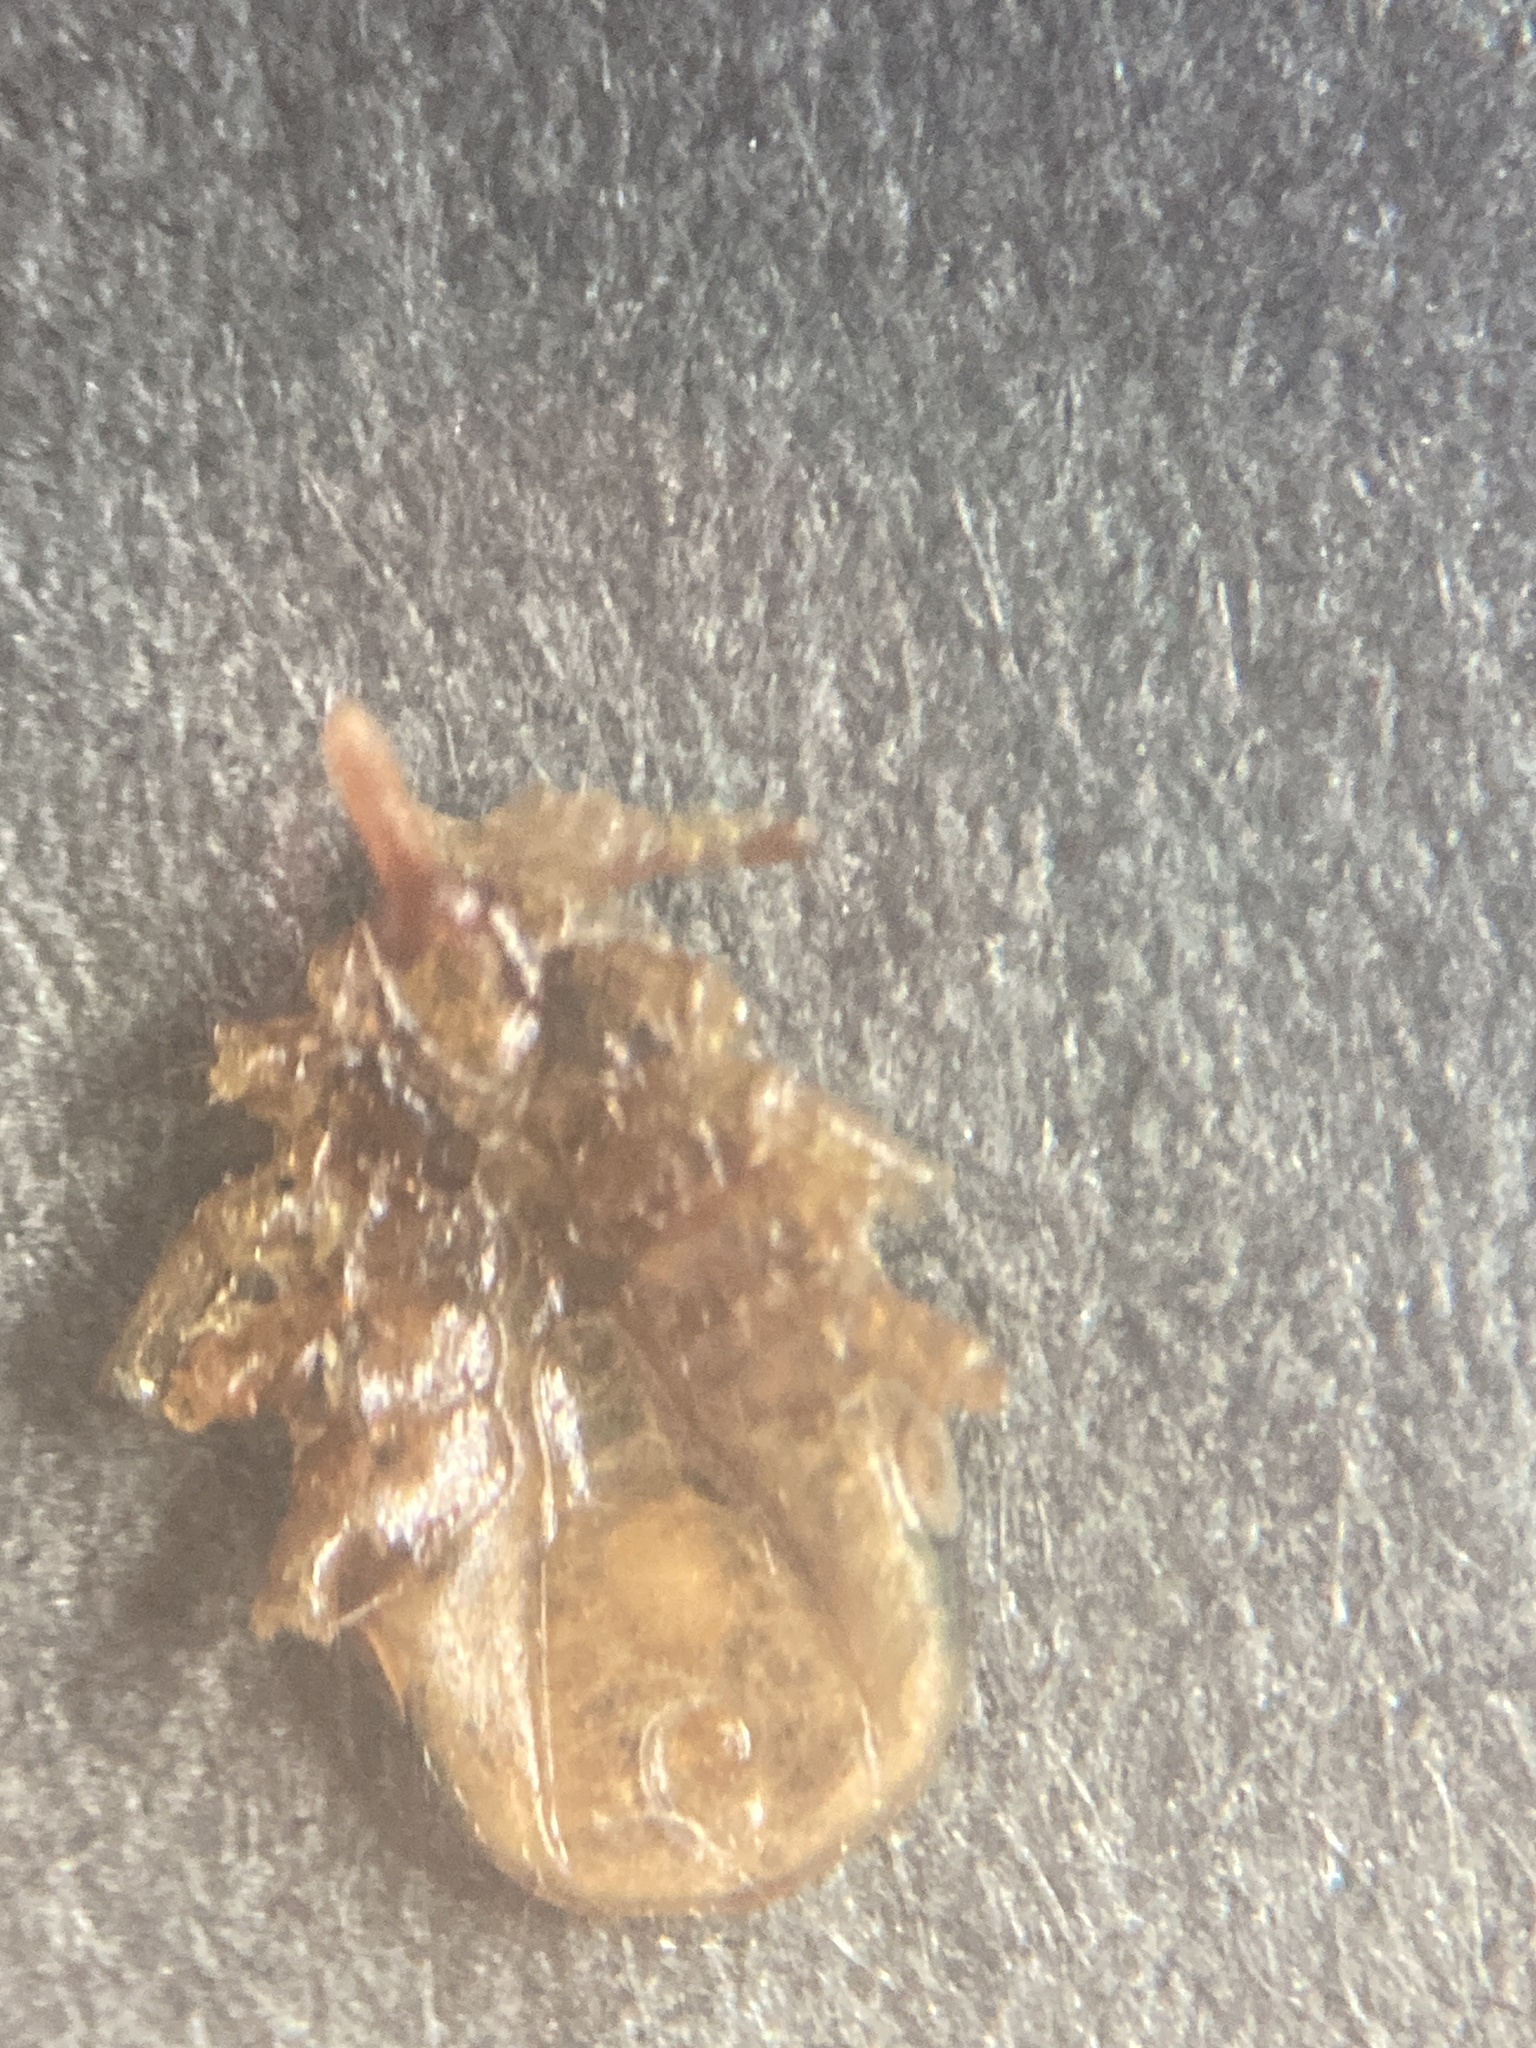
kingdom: Animalia
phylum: Arthropoda
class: Arachnida
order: Ixodida
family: Ixodidae
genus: Ixodes
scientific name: Ixodes holocyclus
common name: Australian paralysis tick
